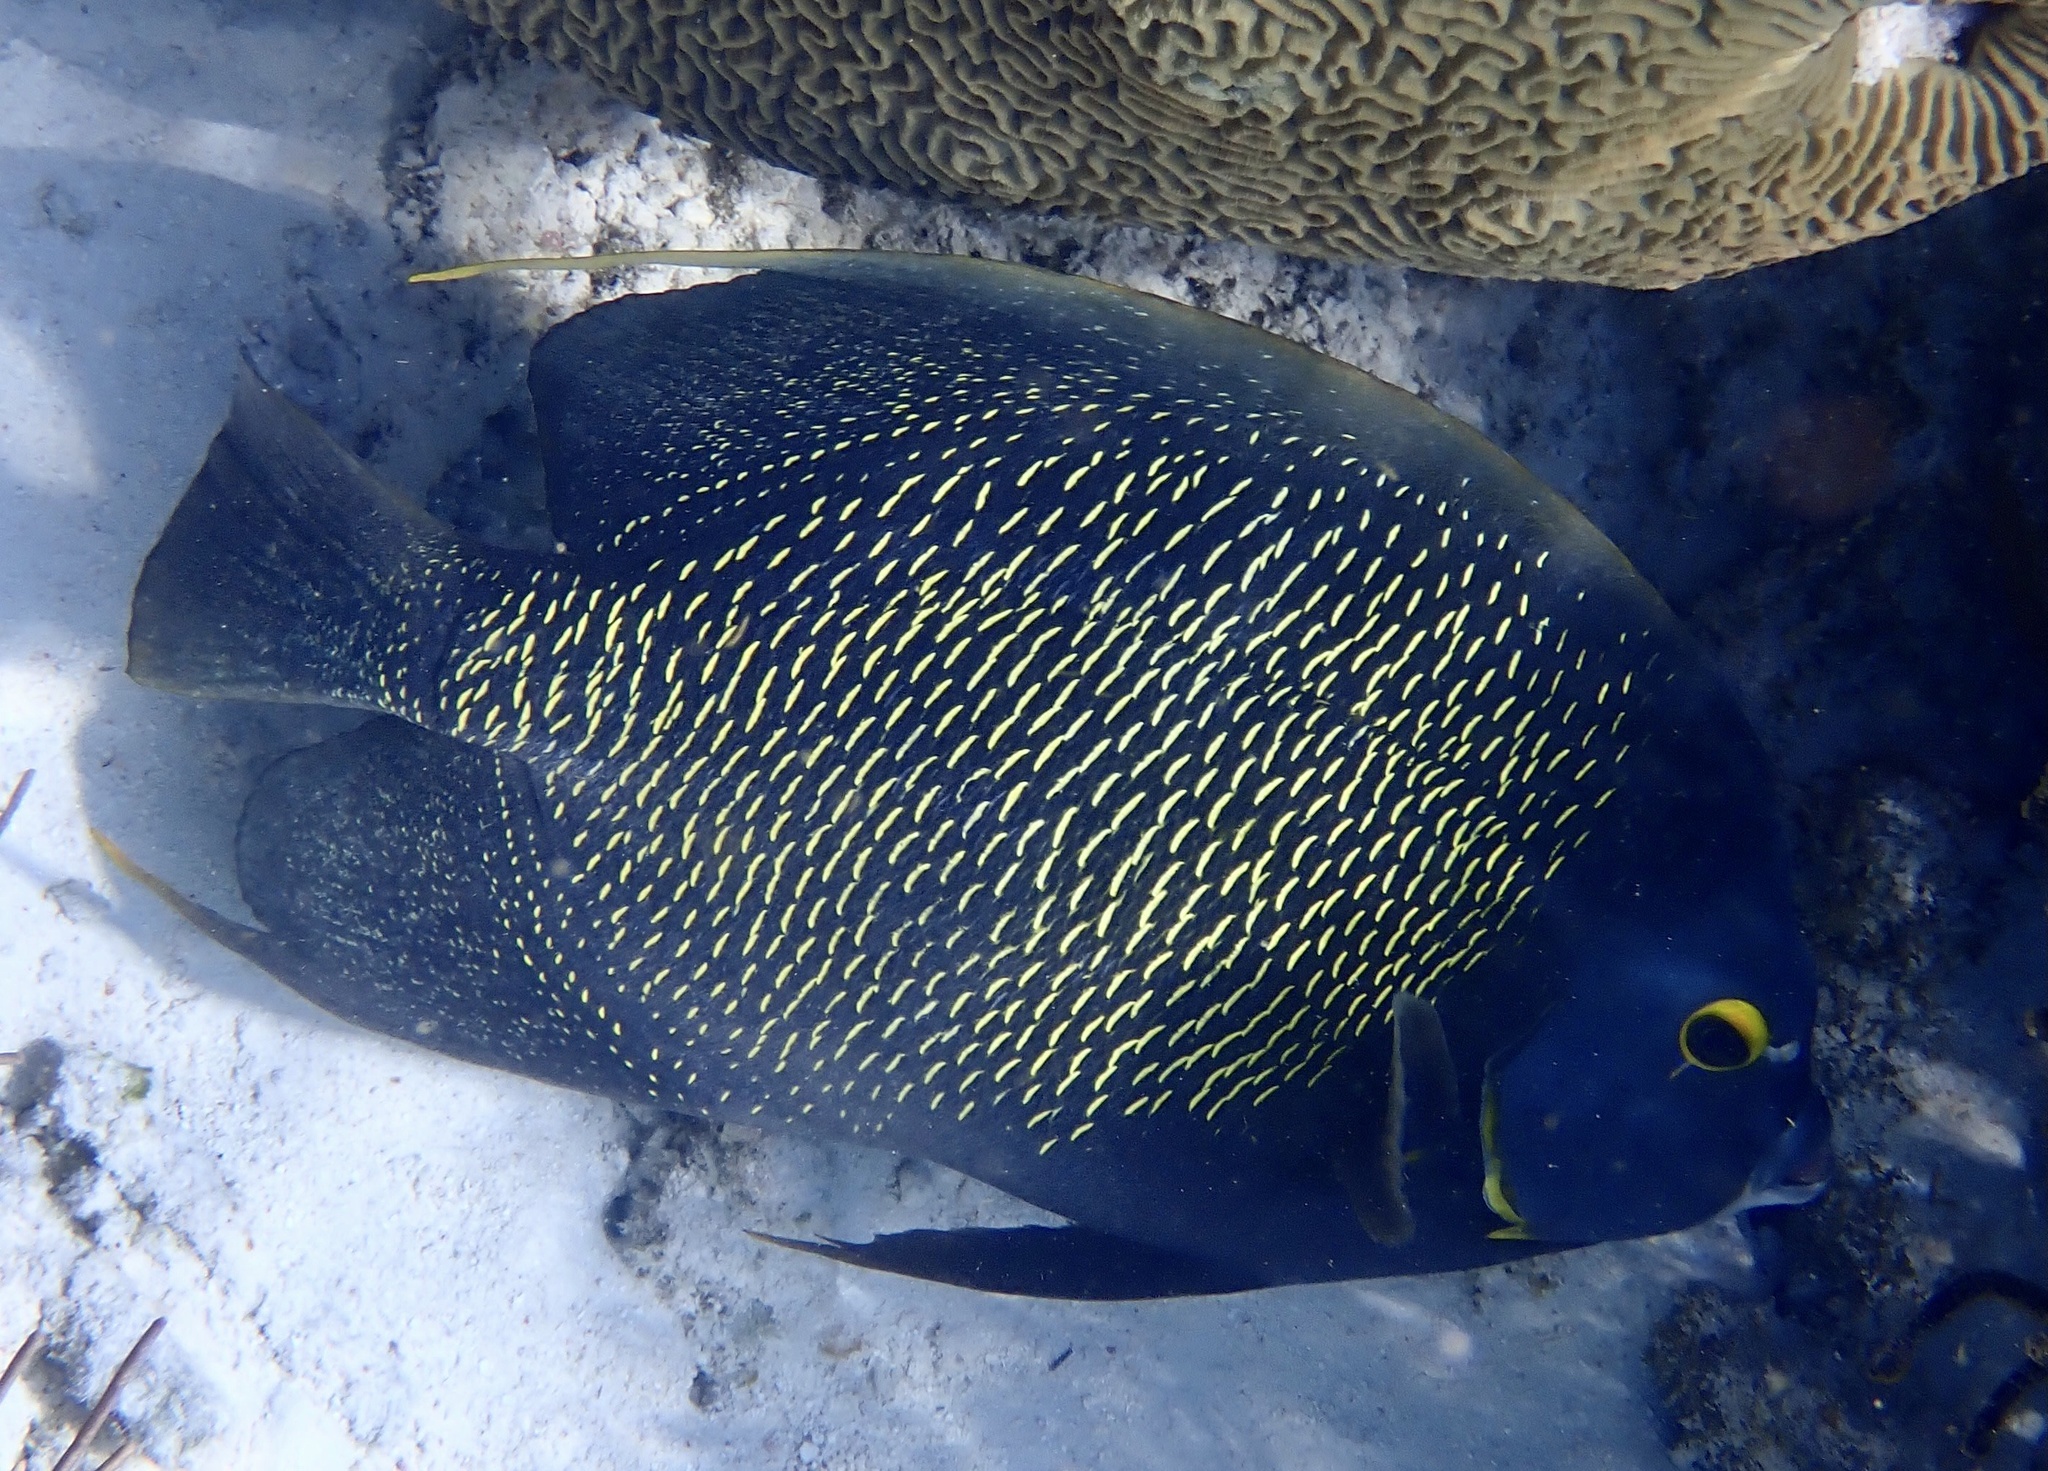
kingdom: Animalia
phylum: Chordata
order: Perciformes
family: Pomacanthidae
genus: Pomacanthus
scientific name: Pomacanthus paru
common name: French angelfish
